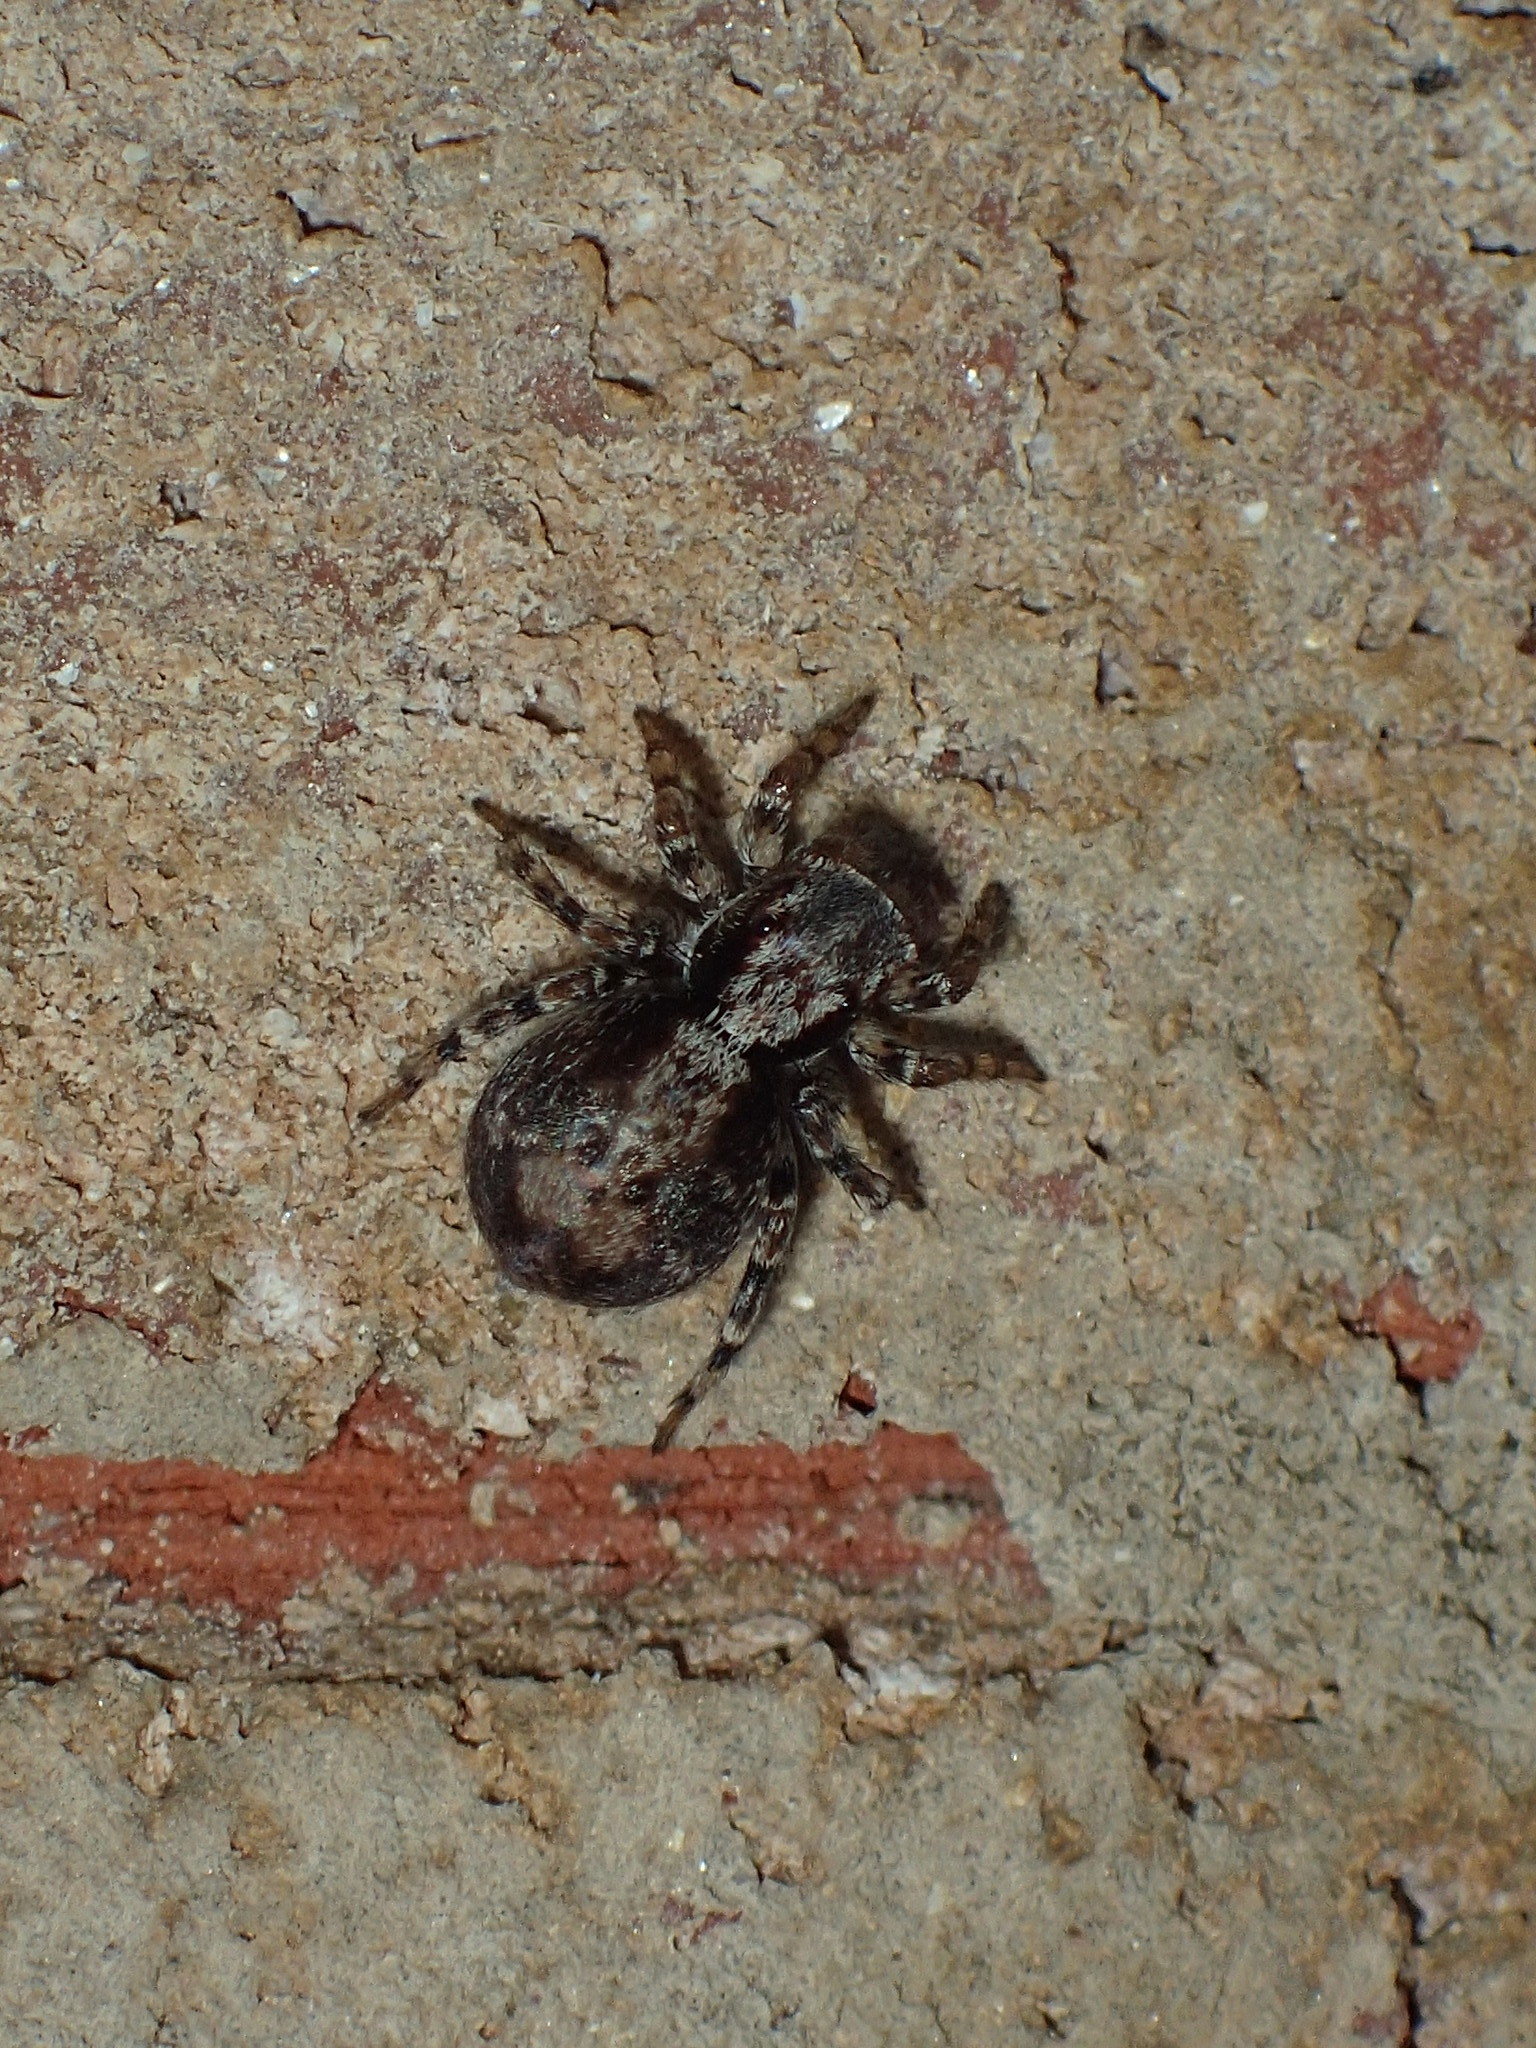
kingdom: Animalia
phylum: Arthropoda
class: Arachnida
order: Araneae
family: Salticidae
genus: Naphrys
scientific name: Naphrys pulex
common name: Flea jumping spider
